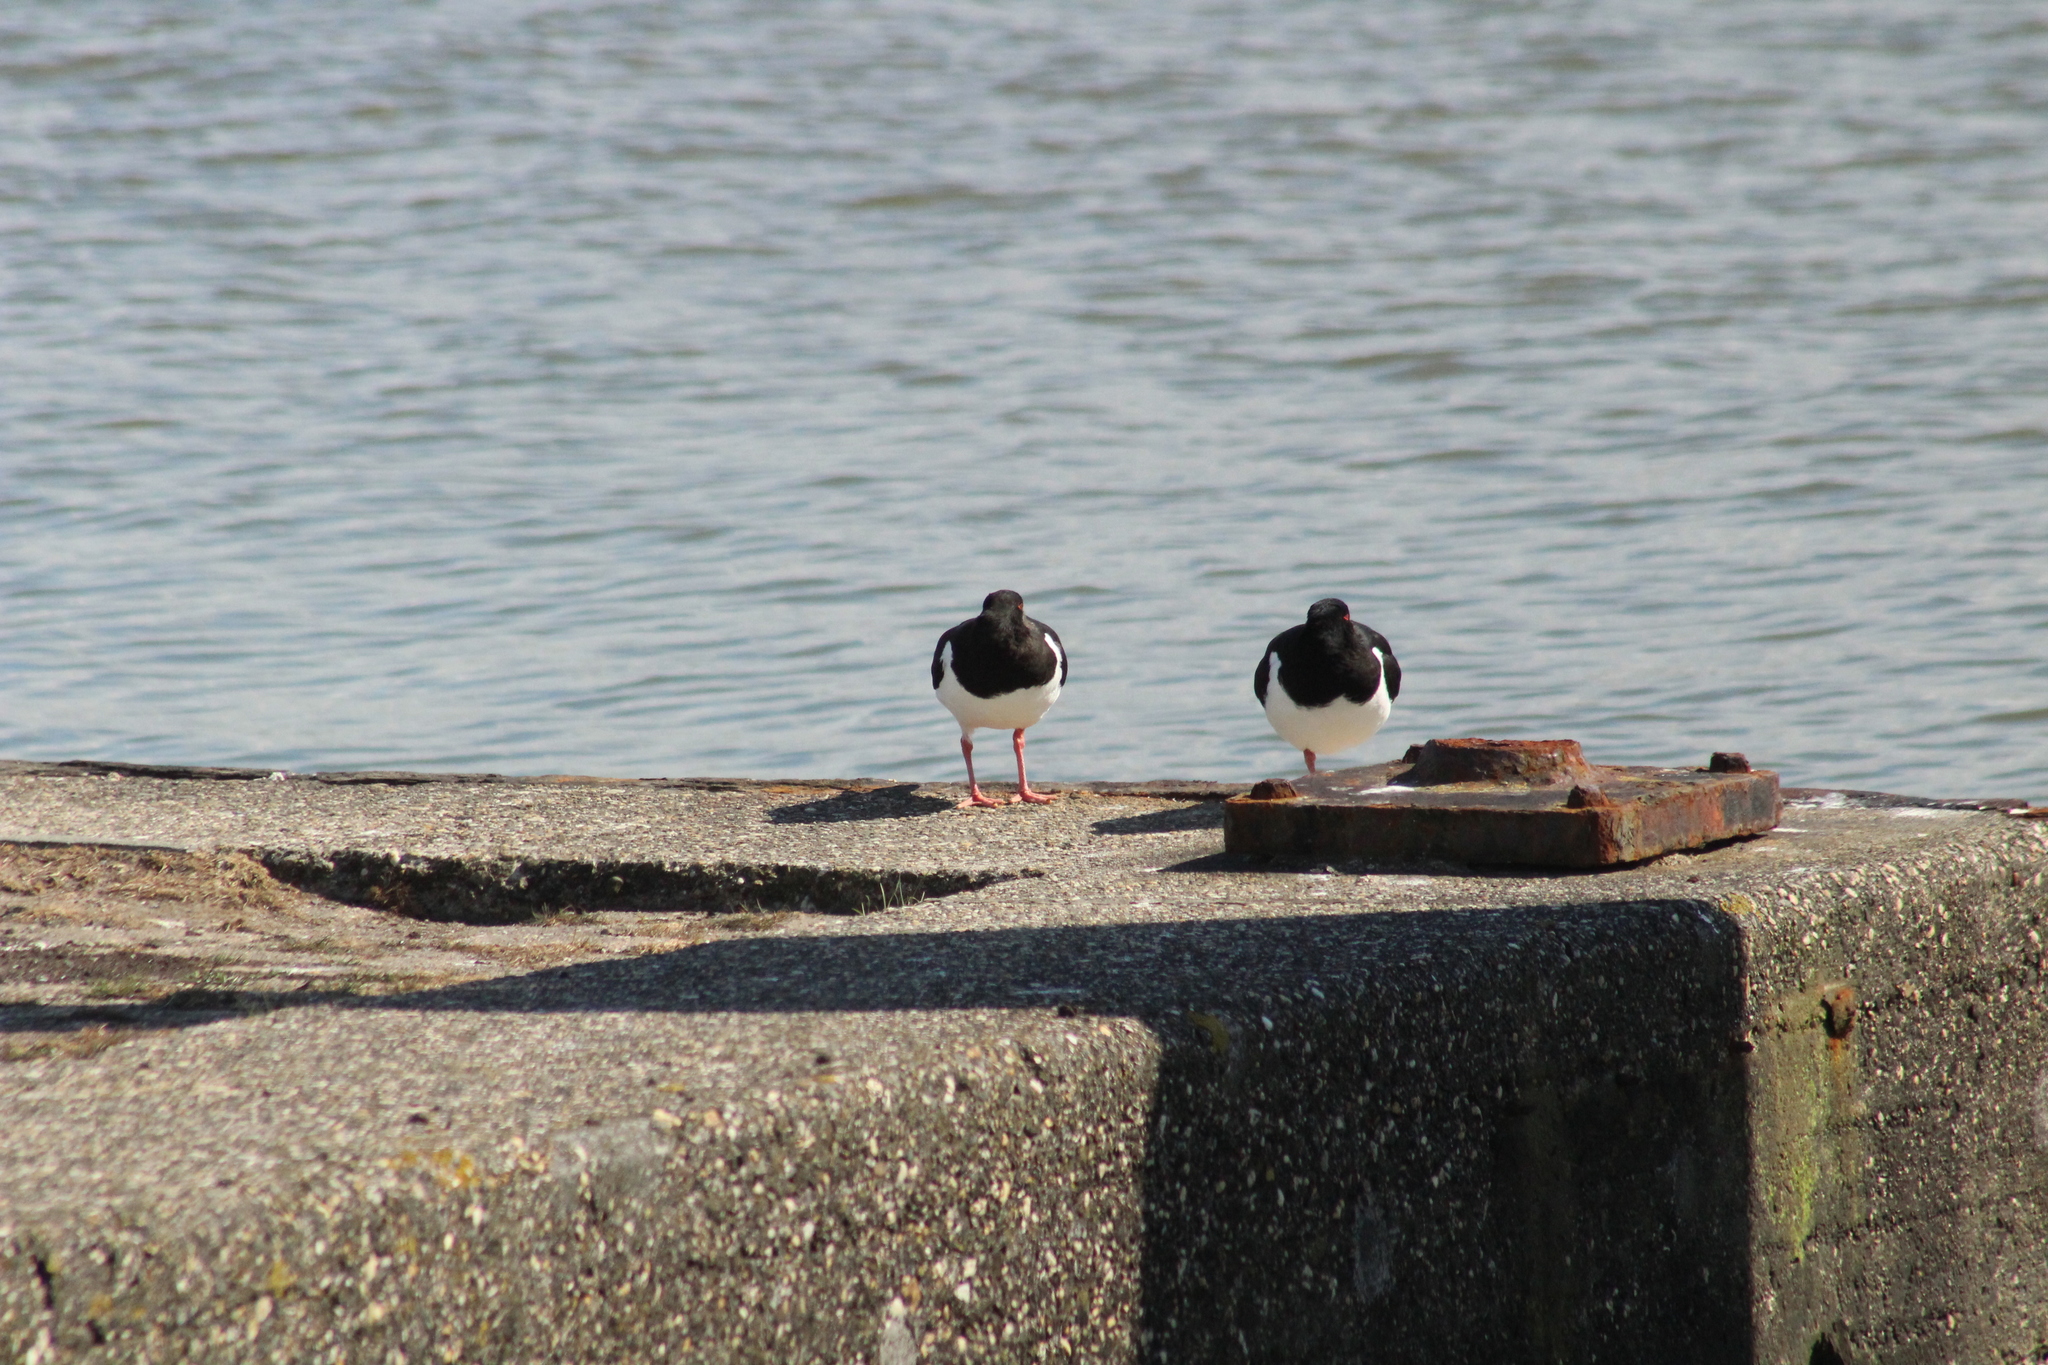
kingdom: Animalia
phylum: Chordata
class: Aves
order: Charadriiformes
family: Haematopodidae
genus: Haematopus
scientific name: Haematopus ostralegus
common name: Eurasian oystercatcher
